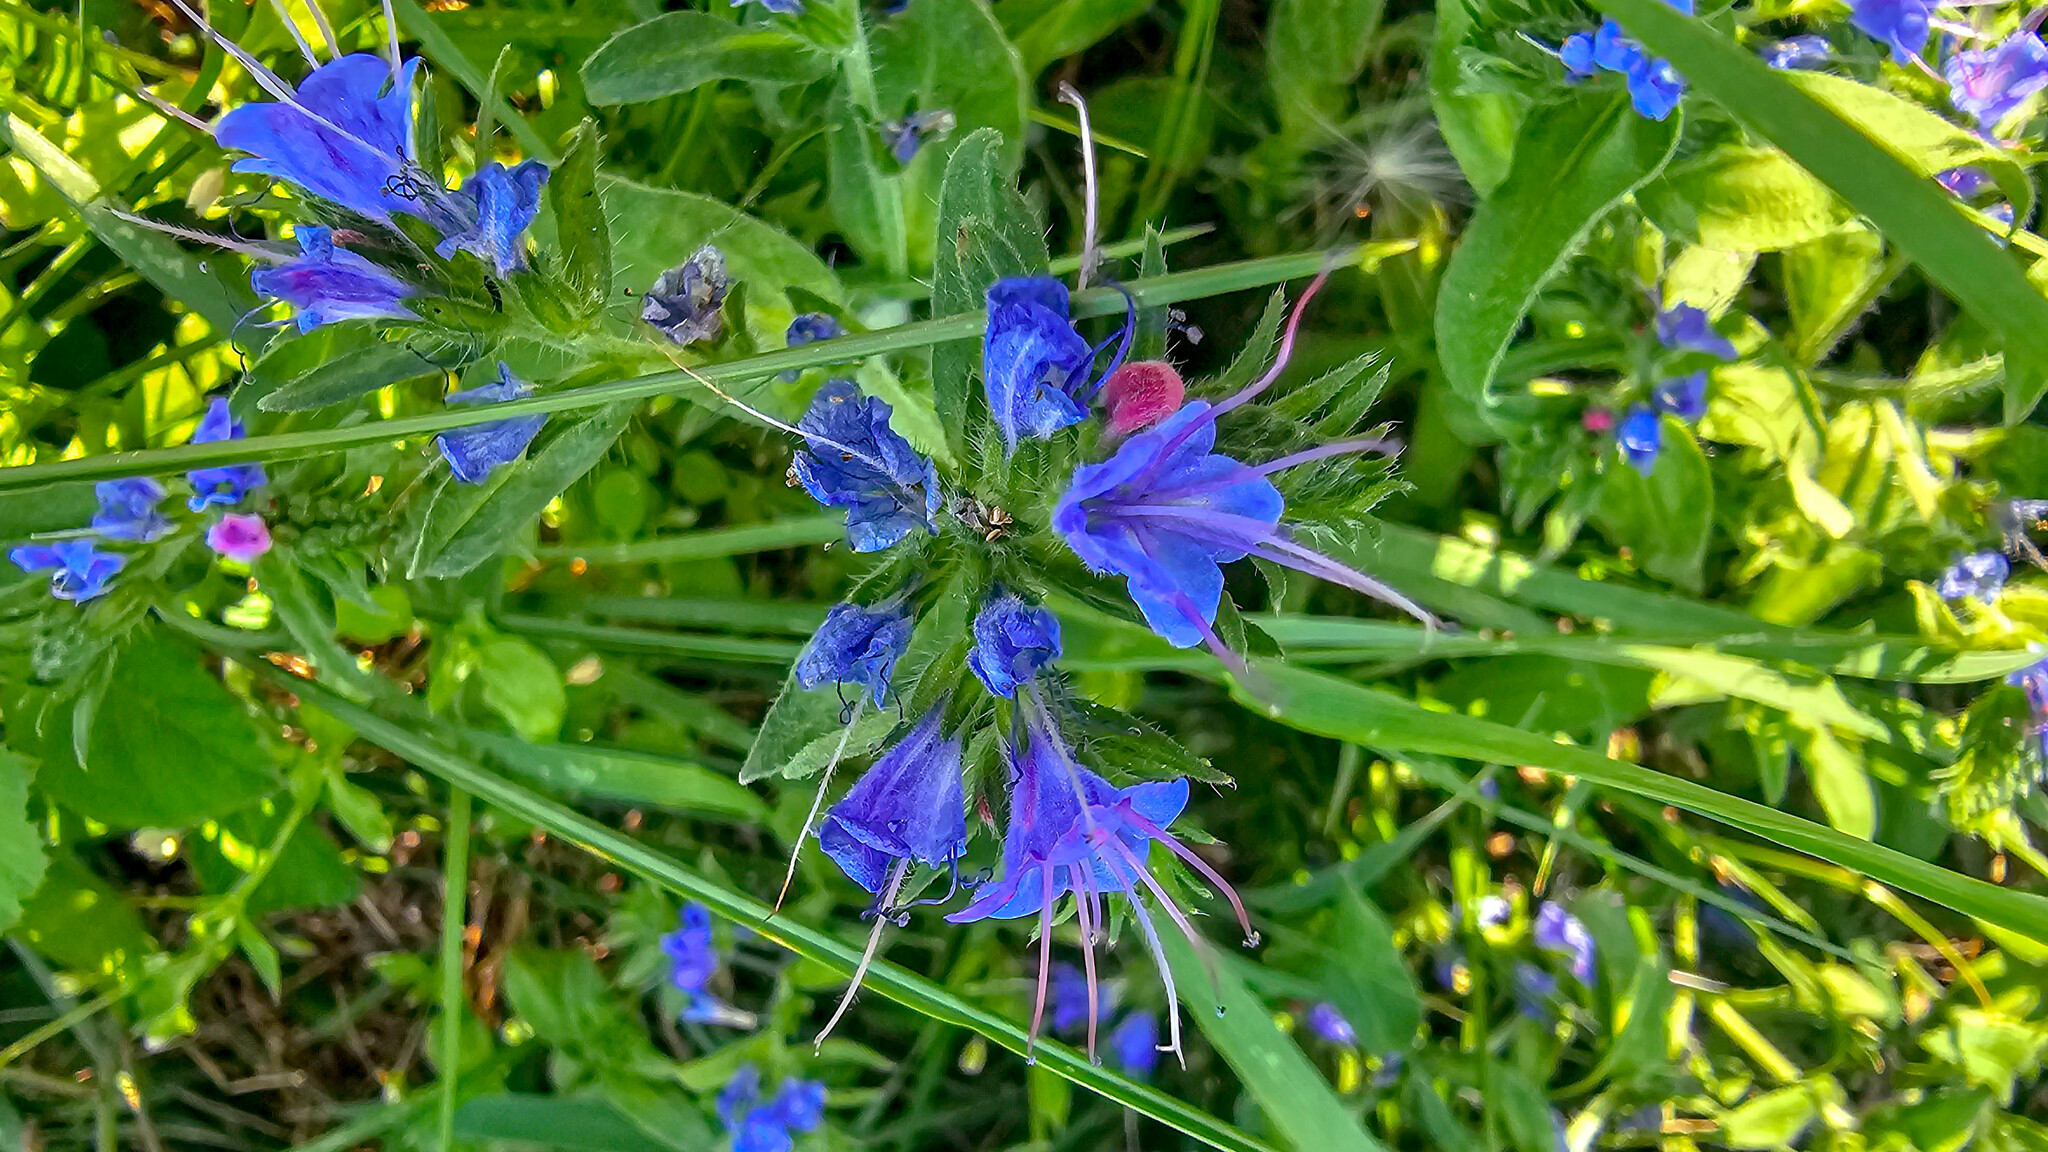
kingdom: Plantae
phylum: Tracheophyta
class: Magnoliopsida
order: Boraginales
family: Boraginaceae
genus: Echium
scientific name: Echium vulgare
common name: Common viper's bugloss
